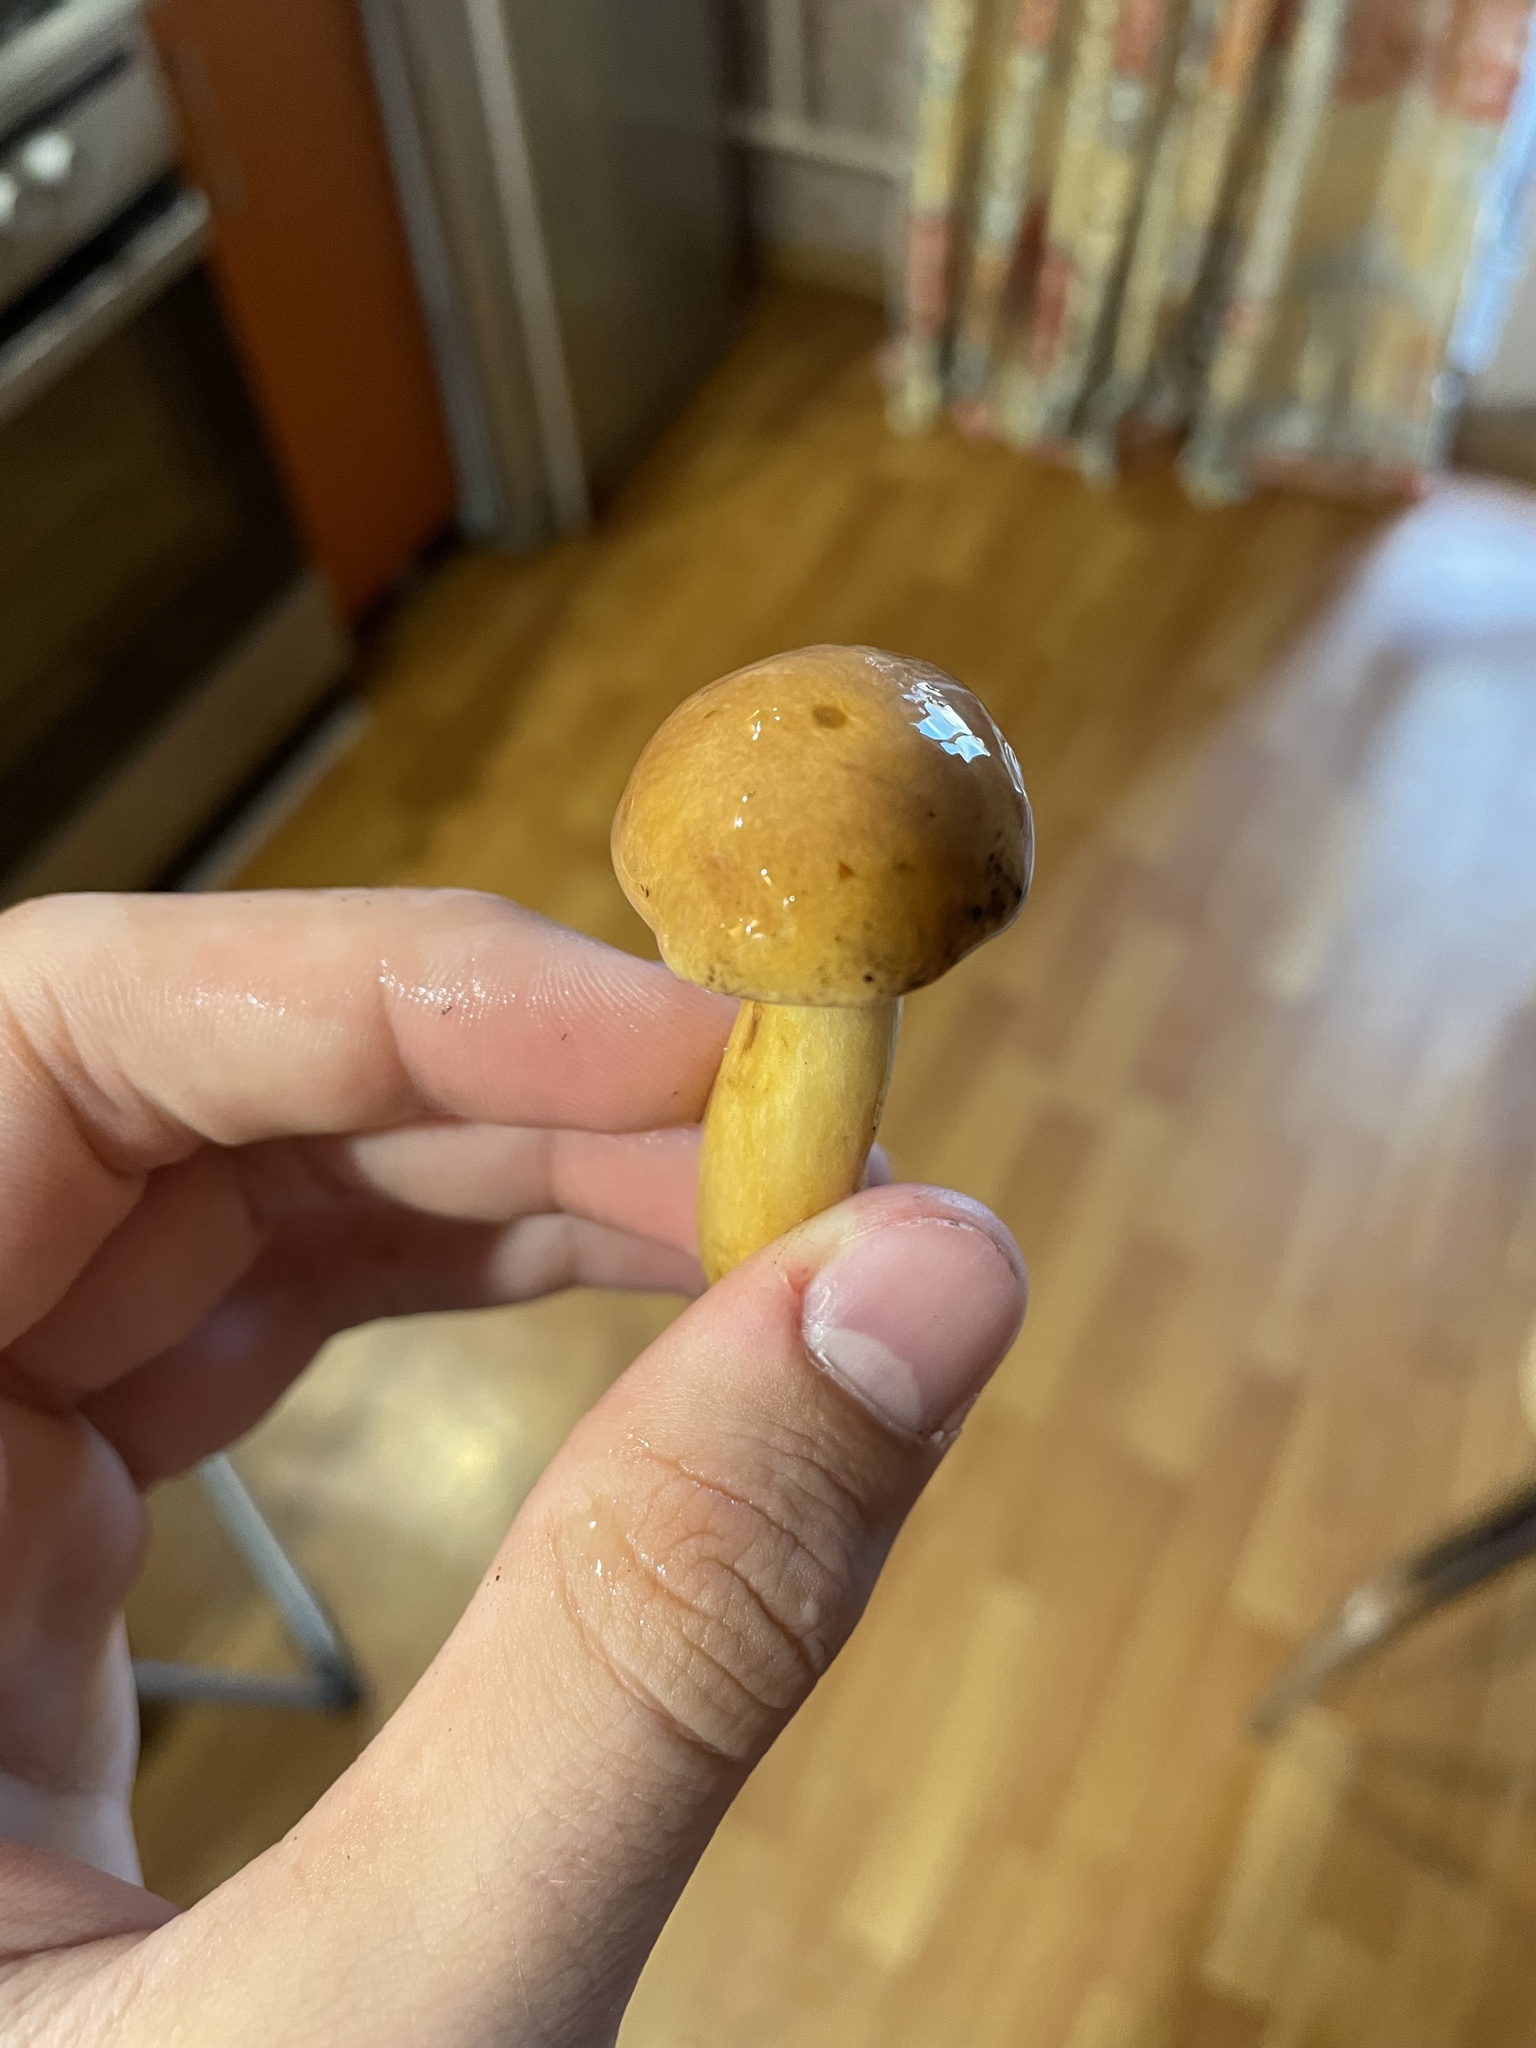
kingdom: Fungi
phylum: Basidiomycota
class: Agaricomycetes
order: Boletales
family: Suillaceae
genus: Suillus
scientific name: Suillus variegatus
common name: Velvet bolete
